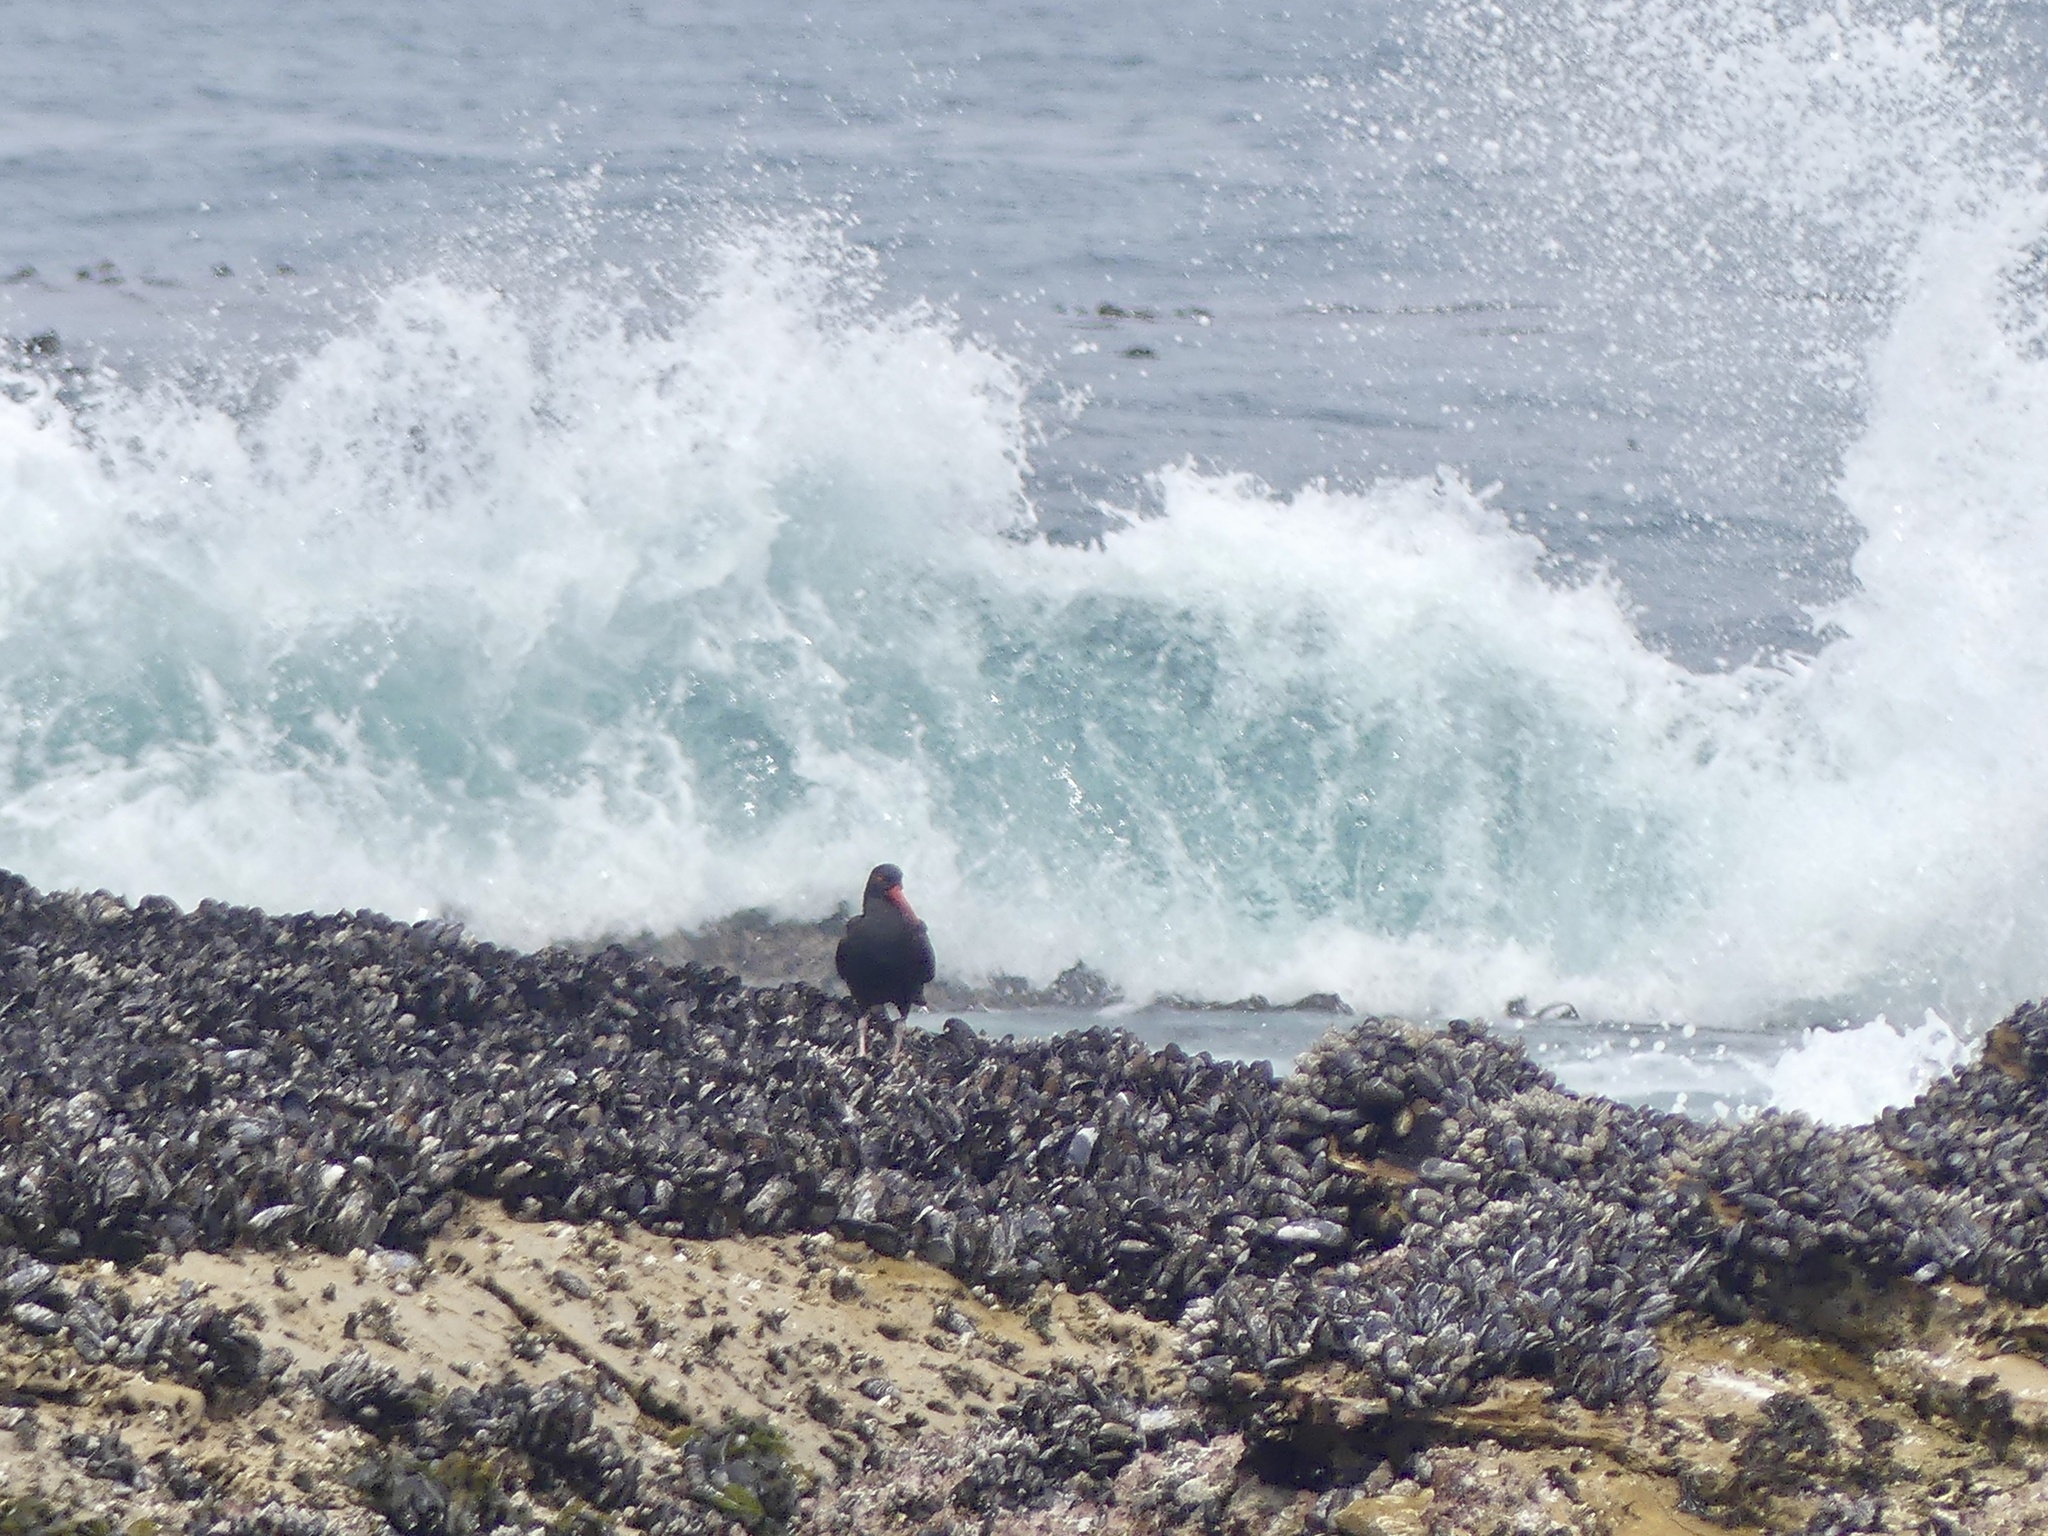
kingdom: Animalia
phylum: Chordata
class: Aves
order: Charadriiformes
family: Haematopodidae
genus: Haematopus
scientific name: Haematopus bachmani
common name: Black oystercatcher
